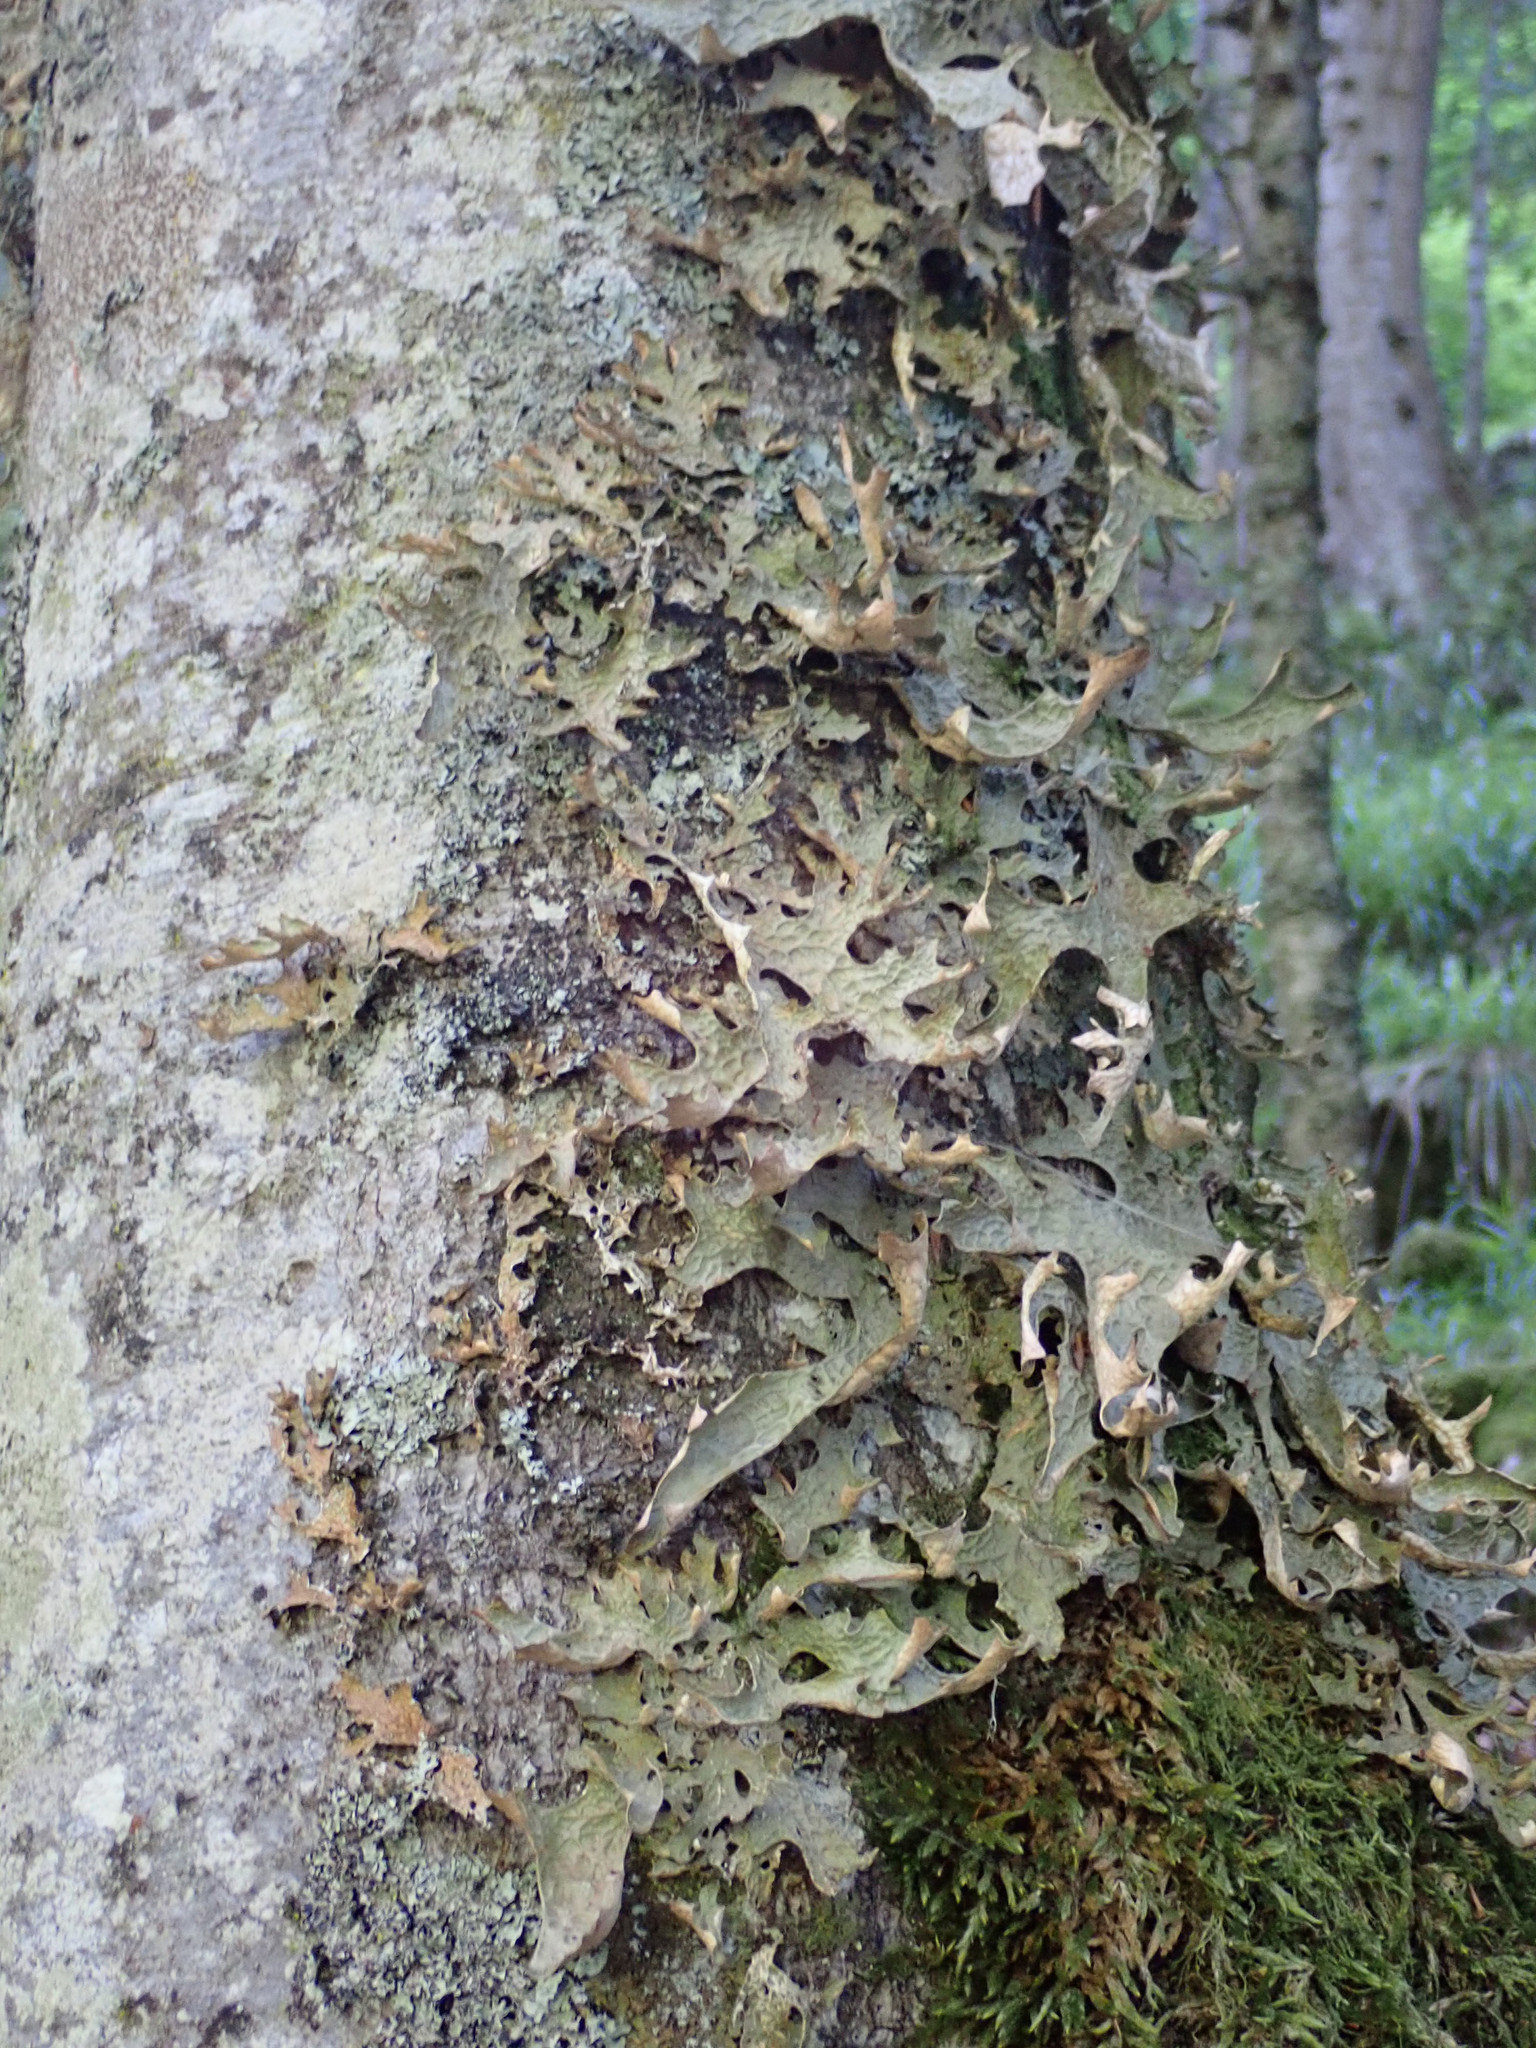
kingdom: Fungi
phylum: Ascomycota
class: Lecanoromycetes
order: Peltigerales
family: Lobariaceae
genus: Lobaria
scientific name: Lobaria pulmonaria
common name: Lungwort
